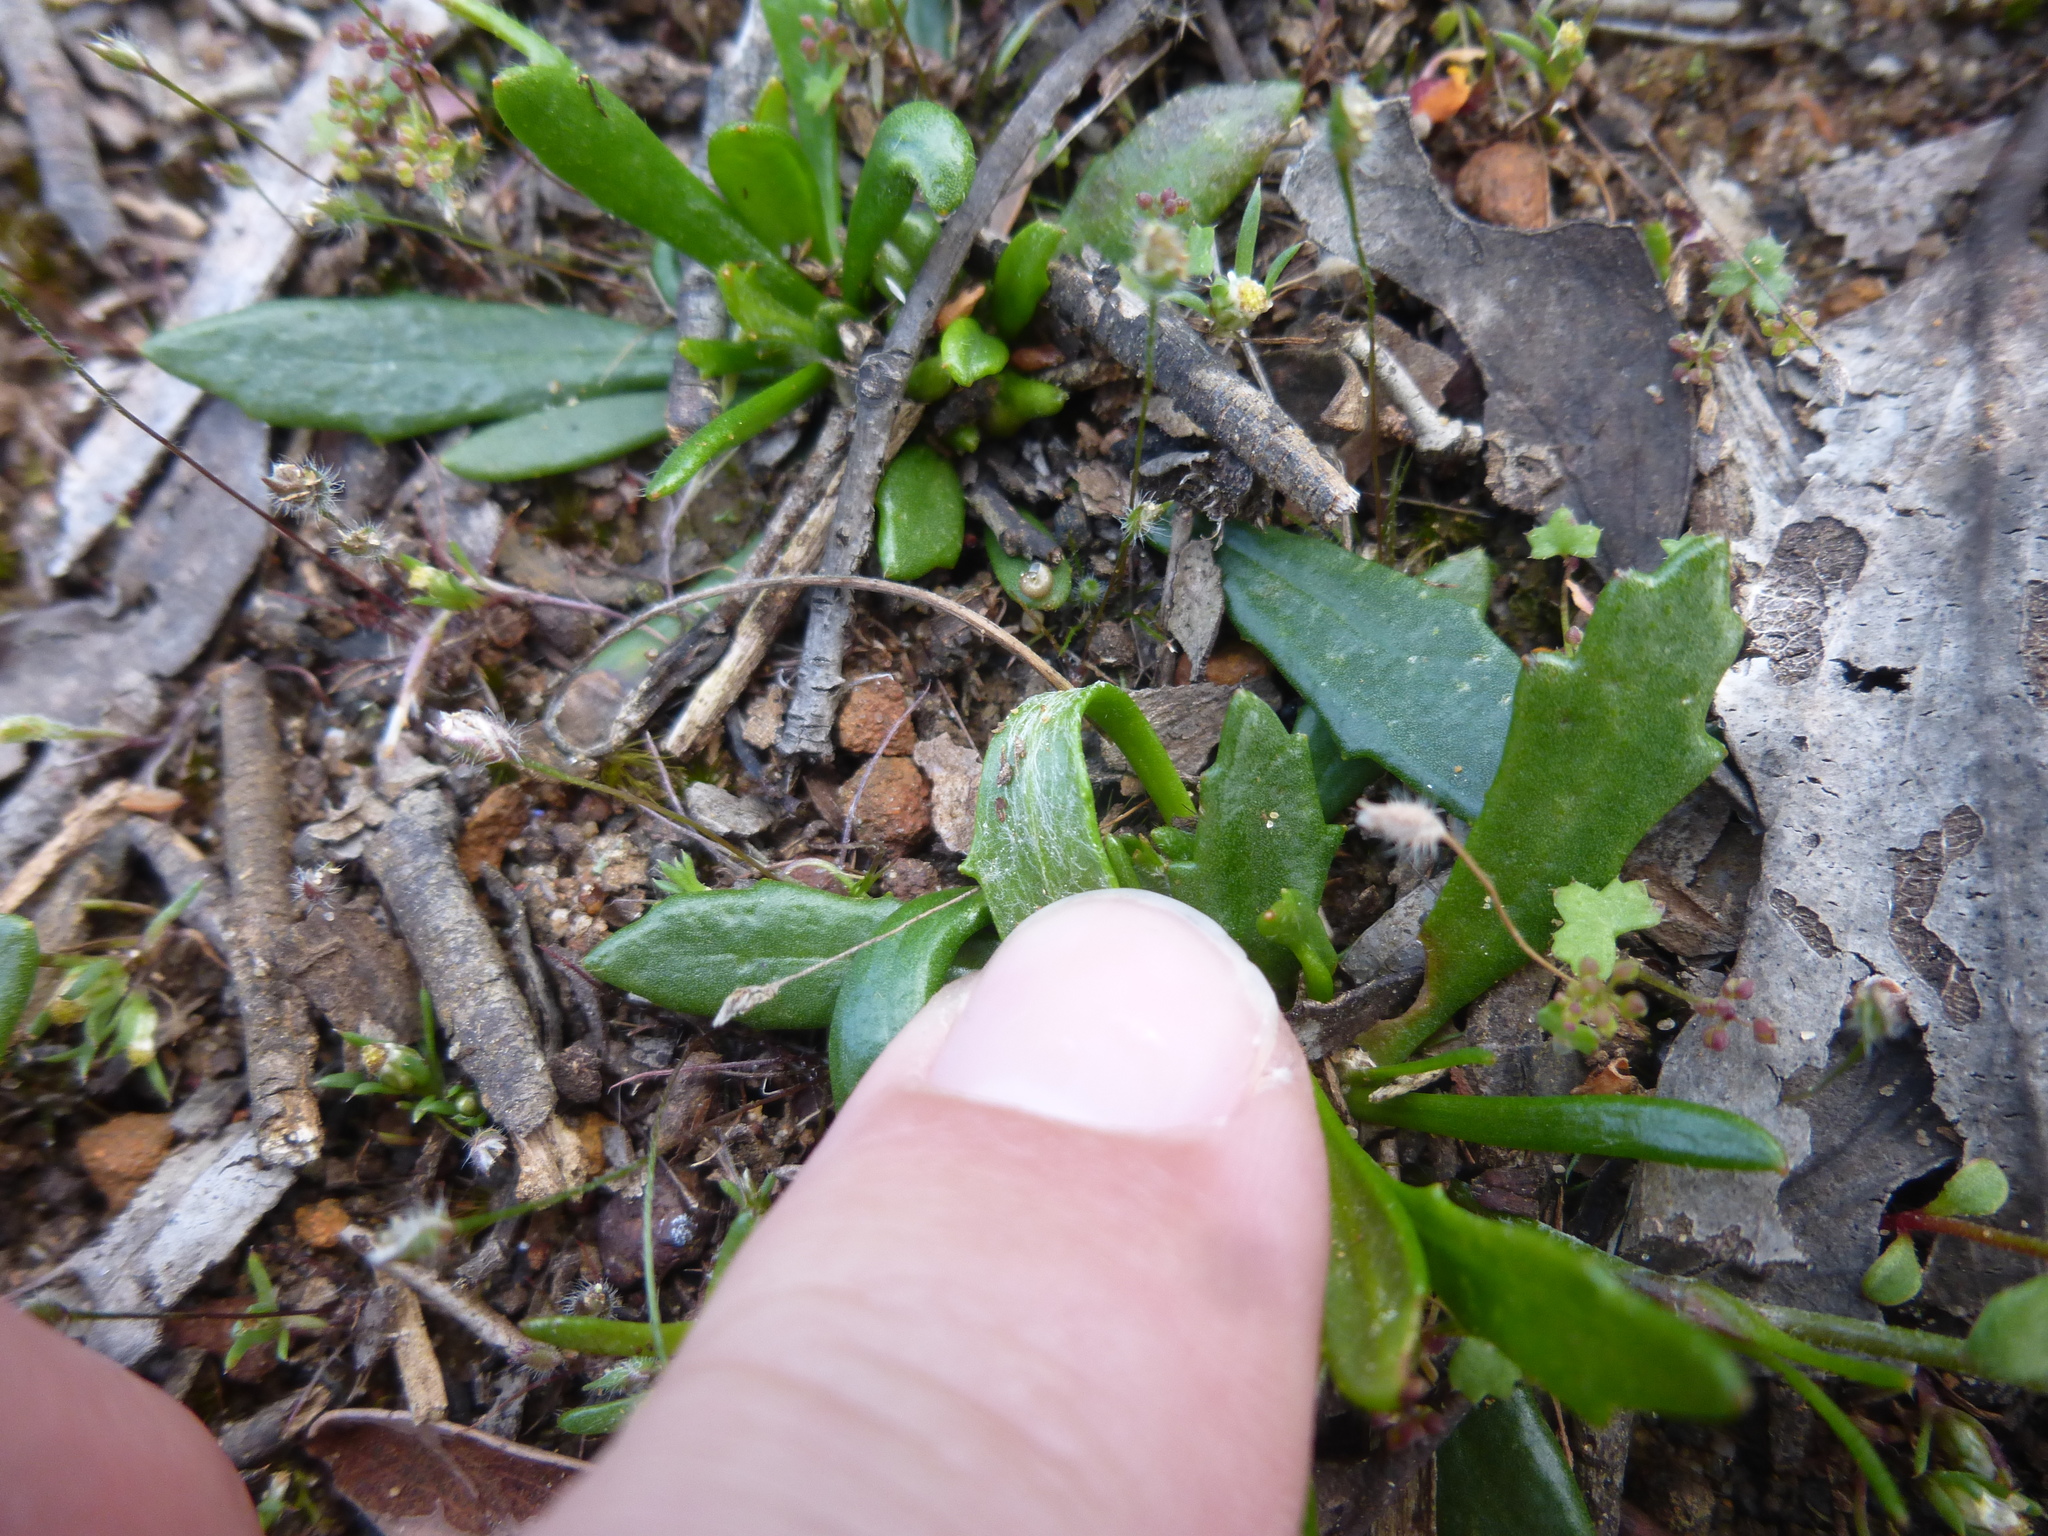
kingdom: Plantae
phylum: Tracheophyta
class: Magnoliopsida
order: Asterales
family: Goodeniaceae
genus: Goodenia
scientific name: Goodenia geniculata
